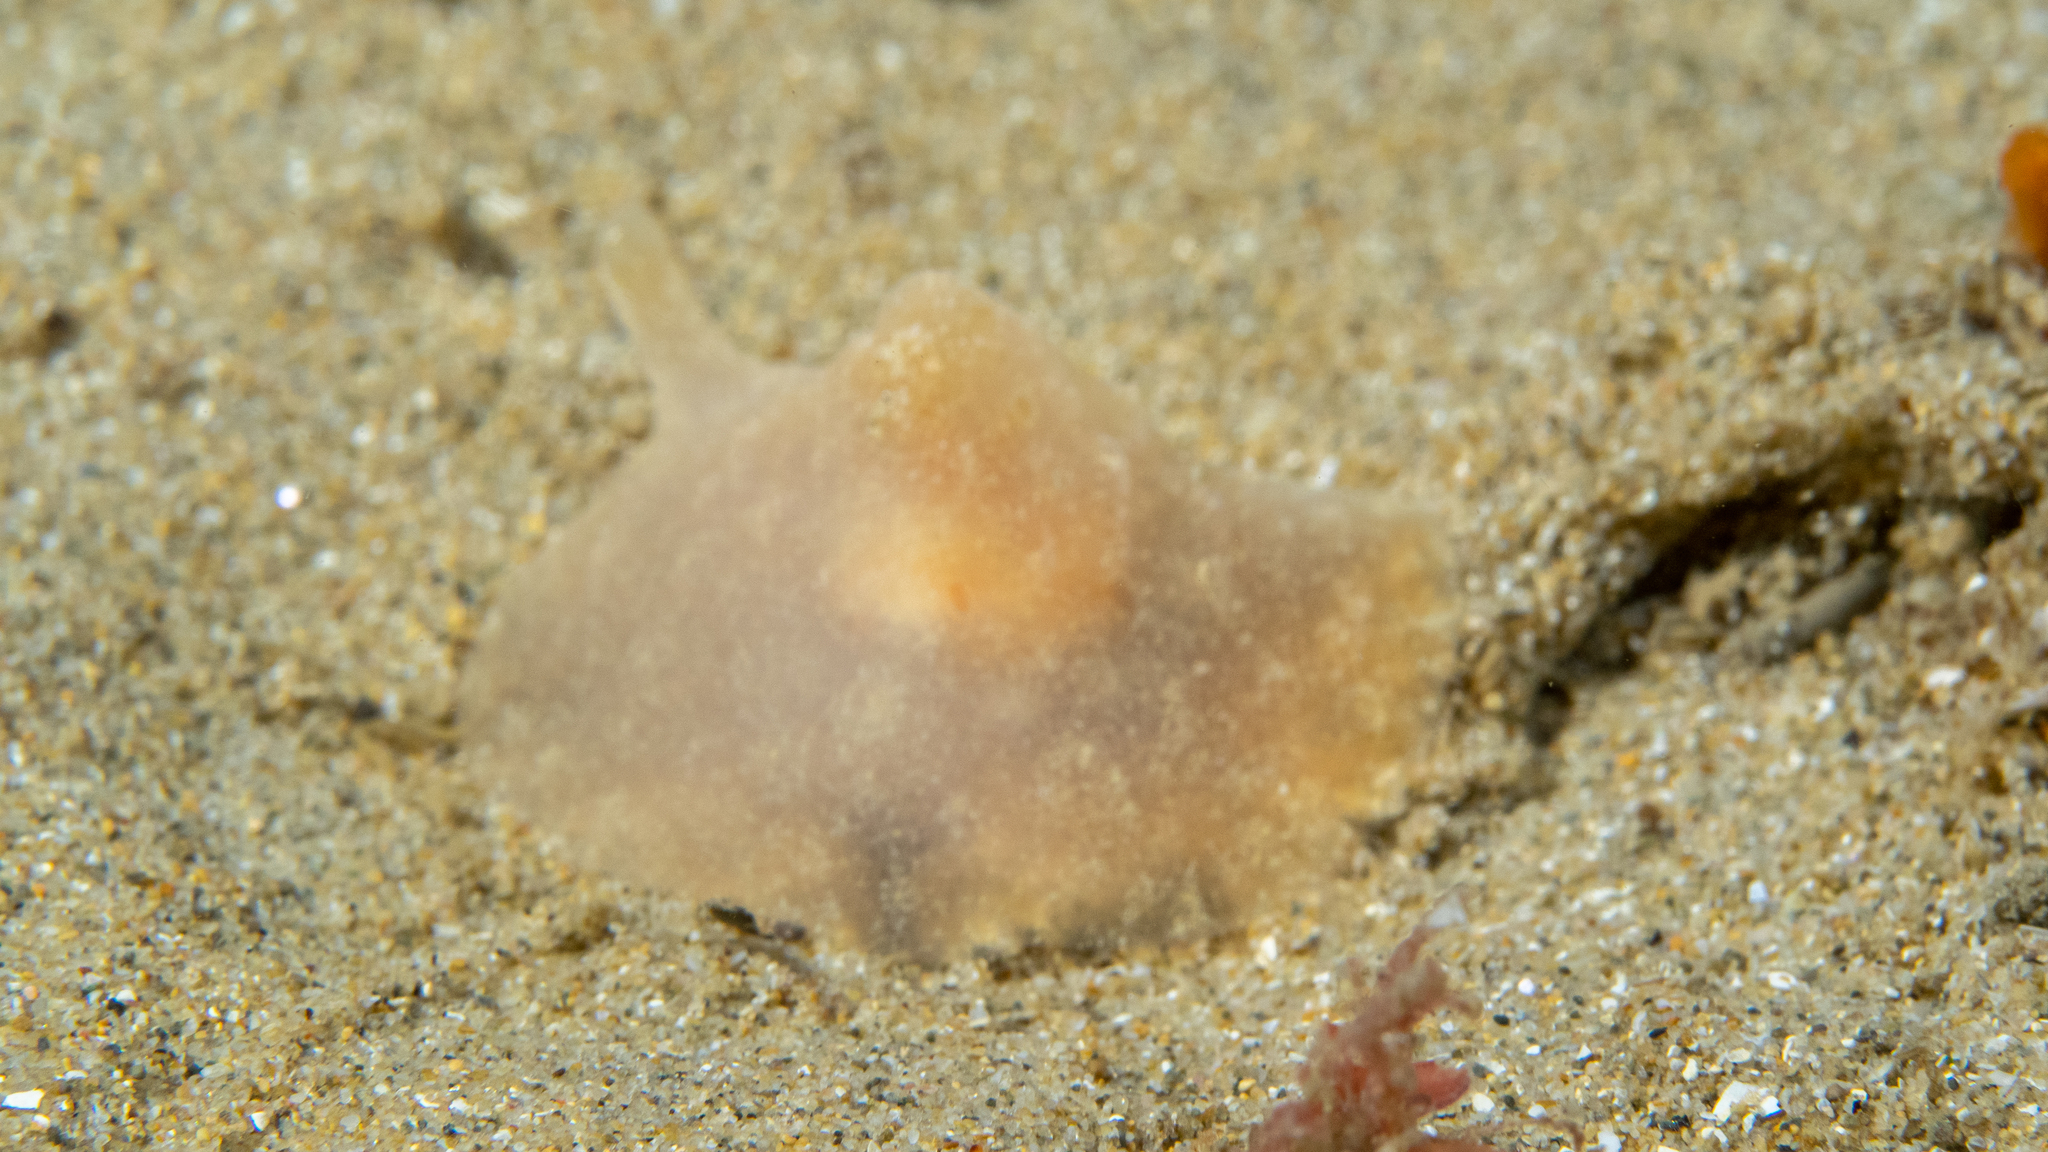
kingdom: Animalia
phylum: Mollusca
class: Gastropoda
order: Littorinimorpha
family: Velutinidae
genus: Lamellaria
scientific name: Lamellaria ophione
